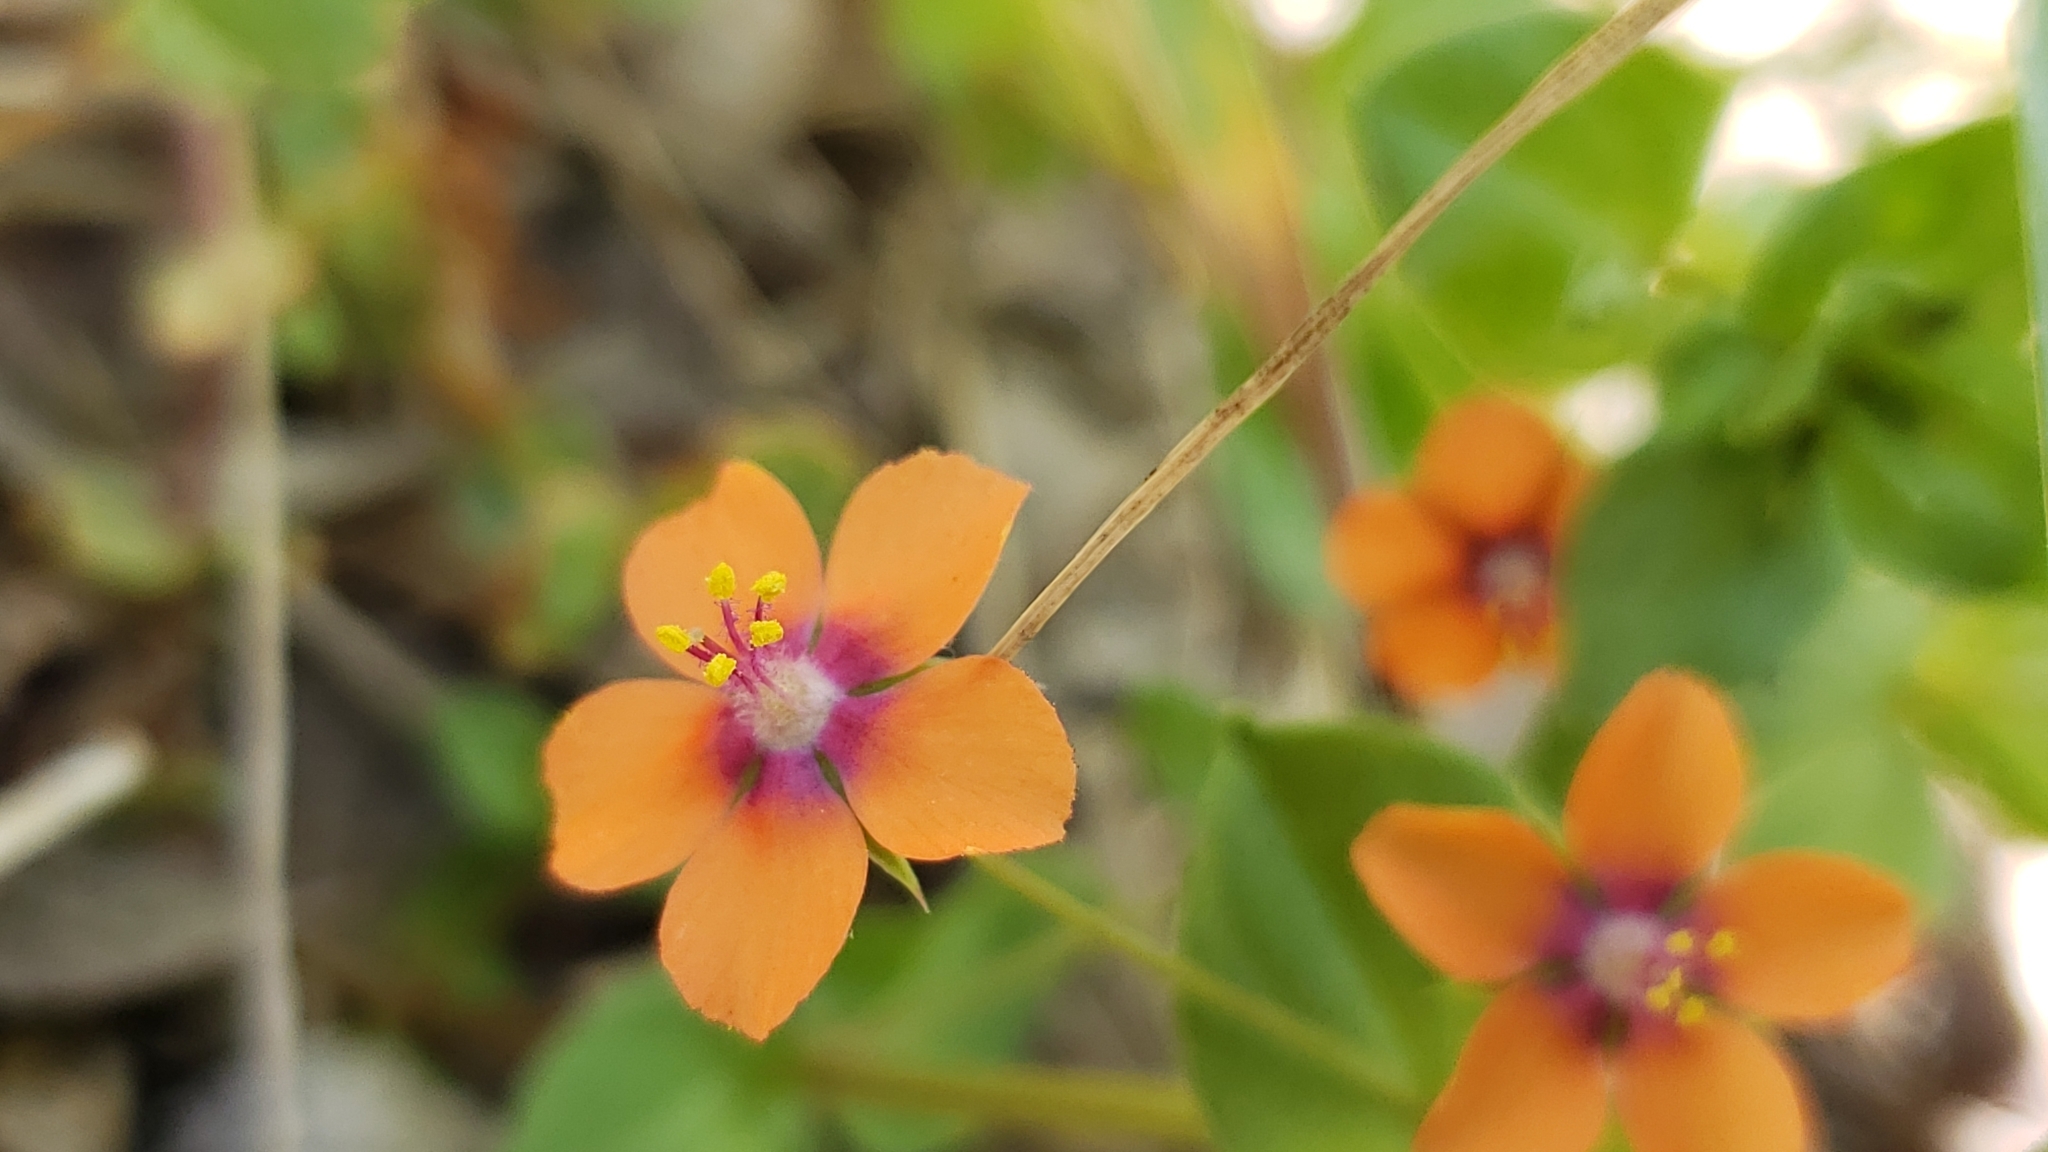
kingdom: Plantae
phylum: Tracheophyta
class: Magnoliopsida
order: Ericales
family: Primulaceae
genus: Lysimachia
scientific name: Lysimachia arvensis
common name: Scarlet pimpernel
